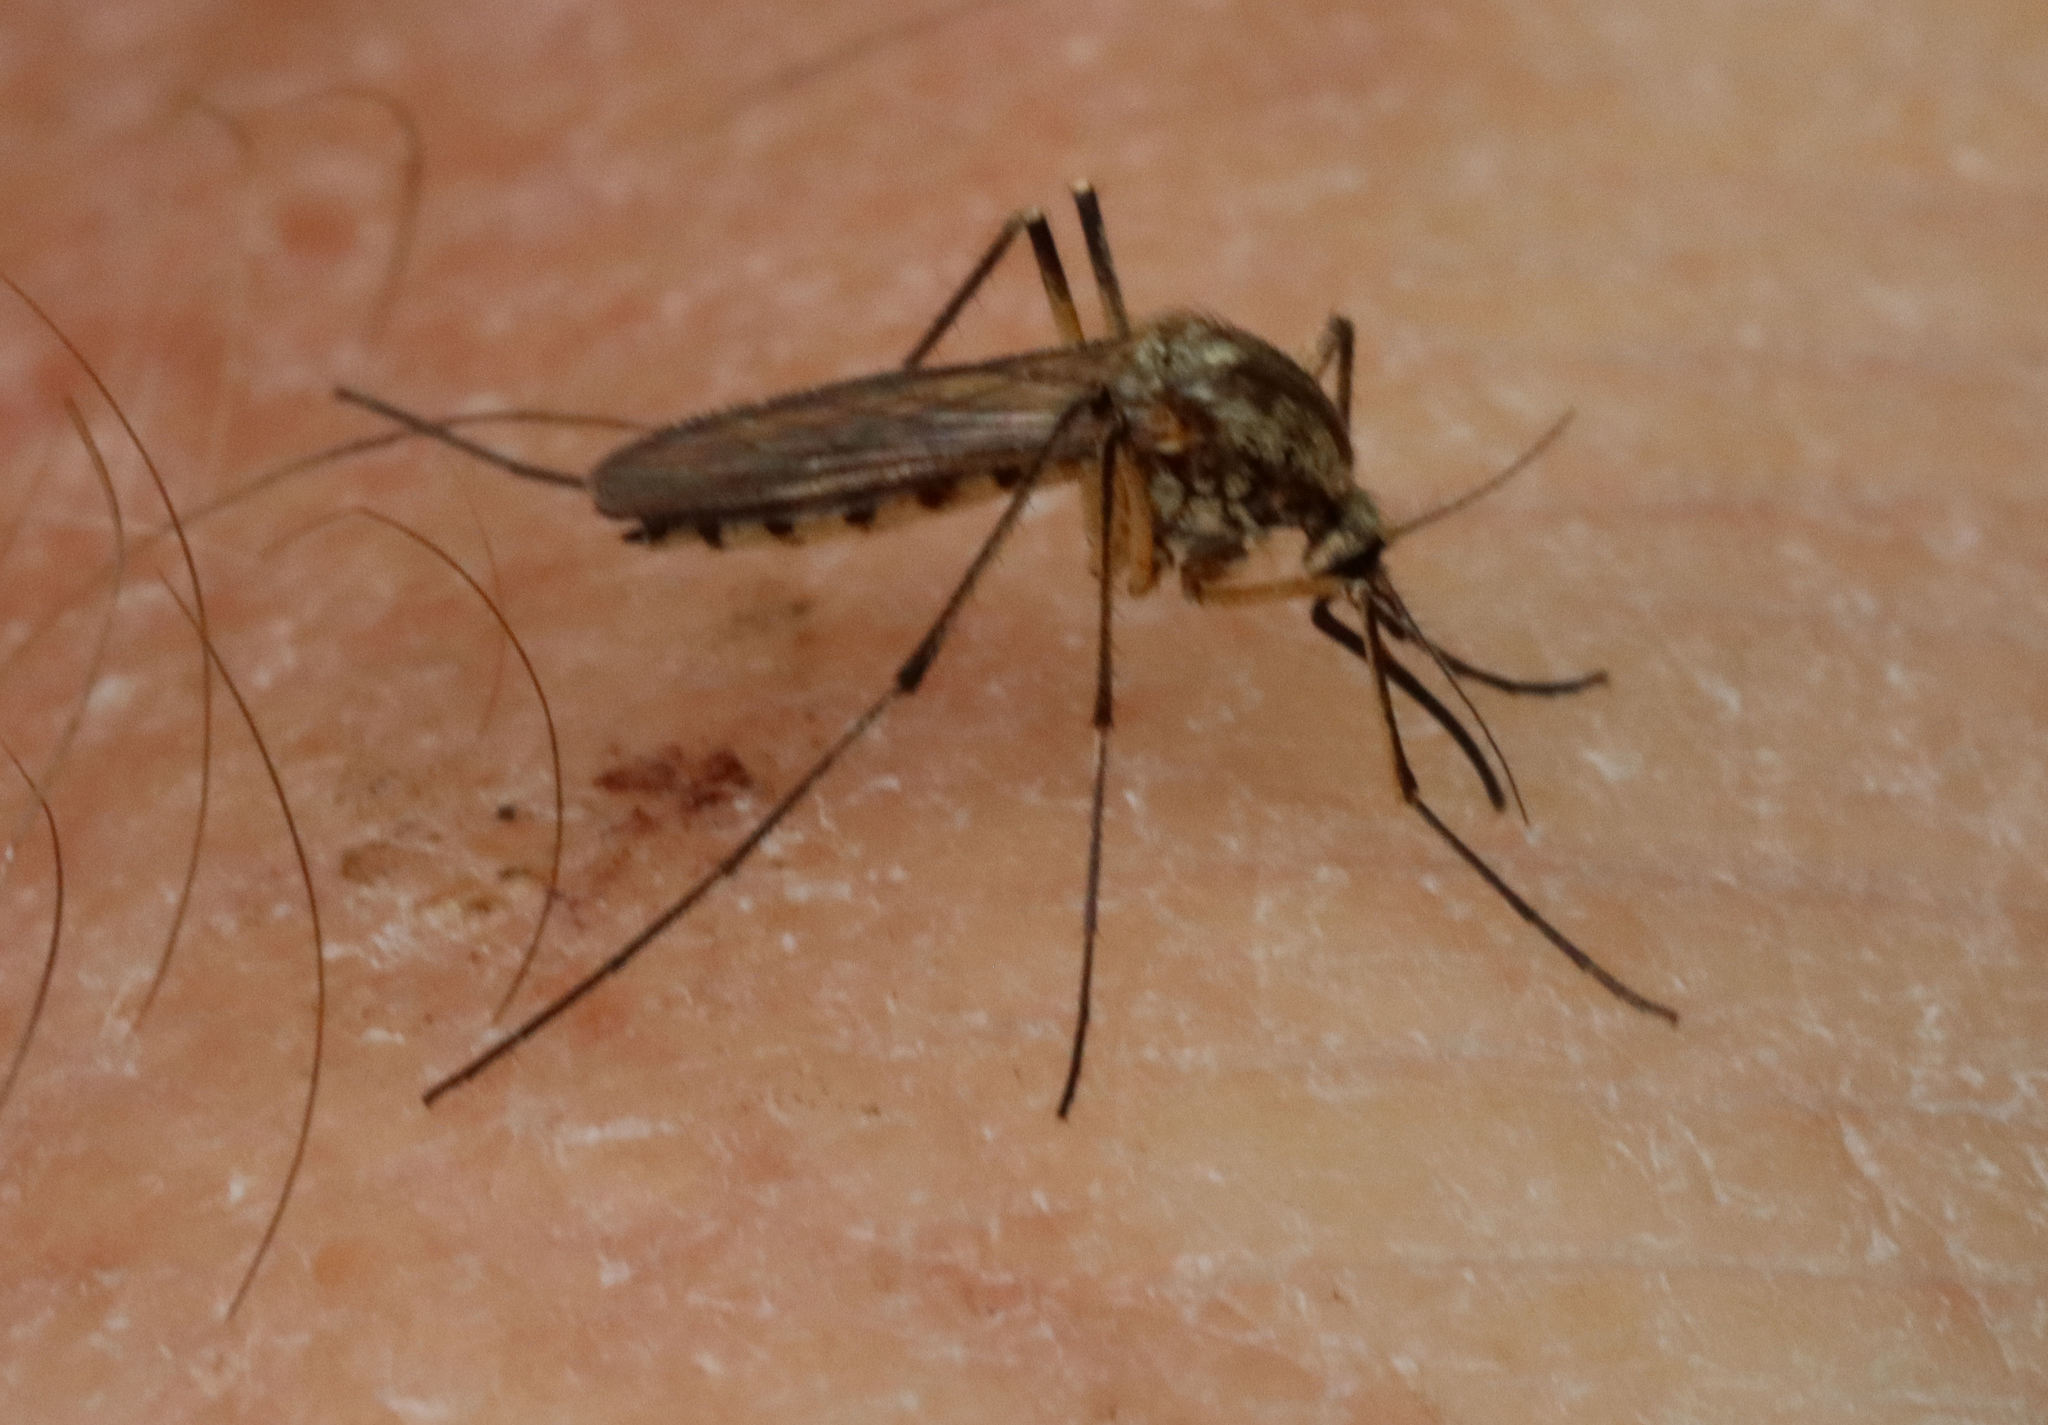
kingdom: Animalia
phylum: Arthropoda
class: Insecta
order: Diptera
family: Culicidae
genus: Aedes
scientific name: Aedes sticticus
